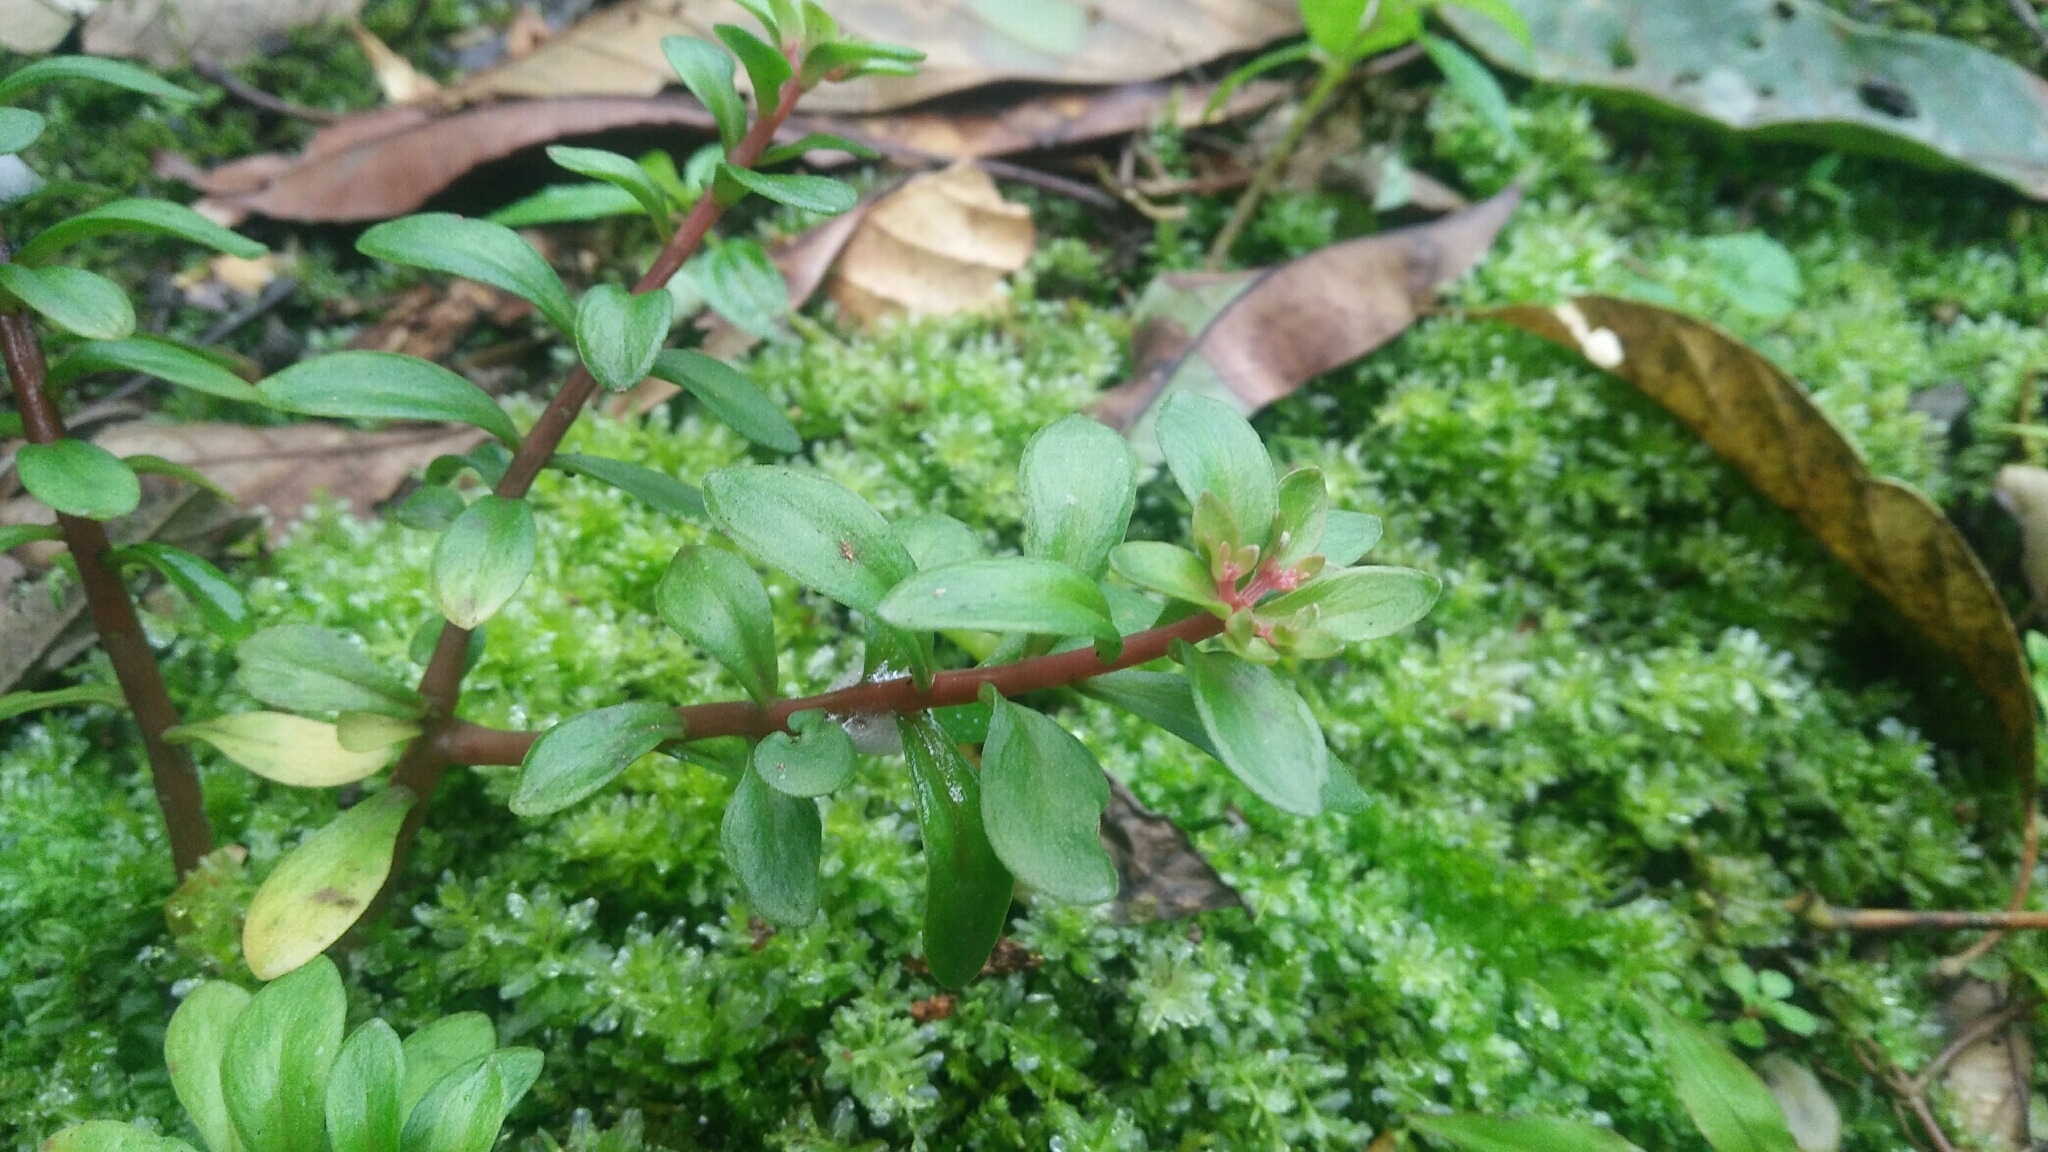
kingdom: Plantae
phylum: Tracheophyta
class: Magnoliopsida
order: Saxifragales
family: Crassulaceae
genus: Sedum
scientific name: Sedum microsepalum
